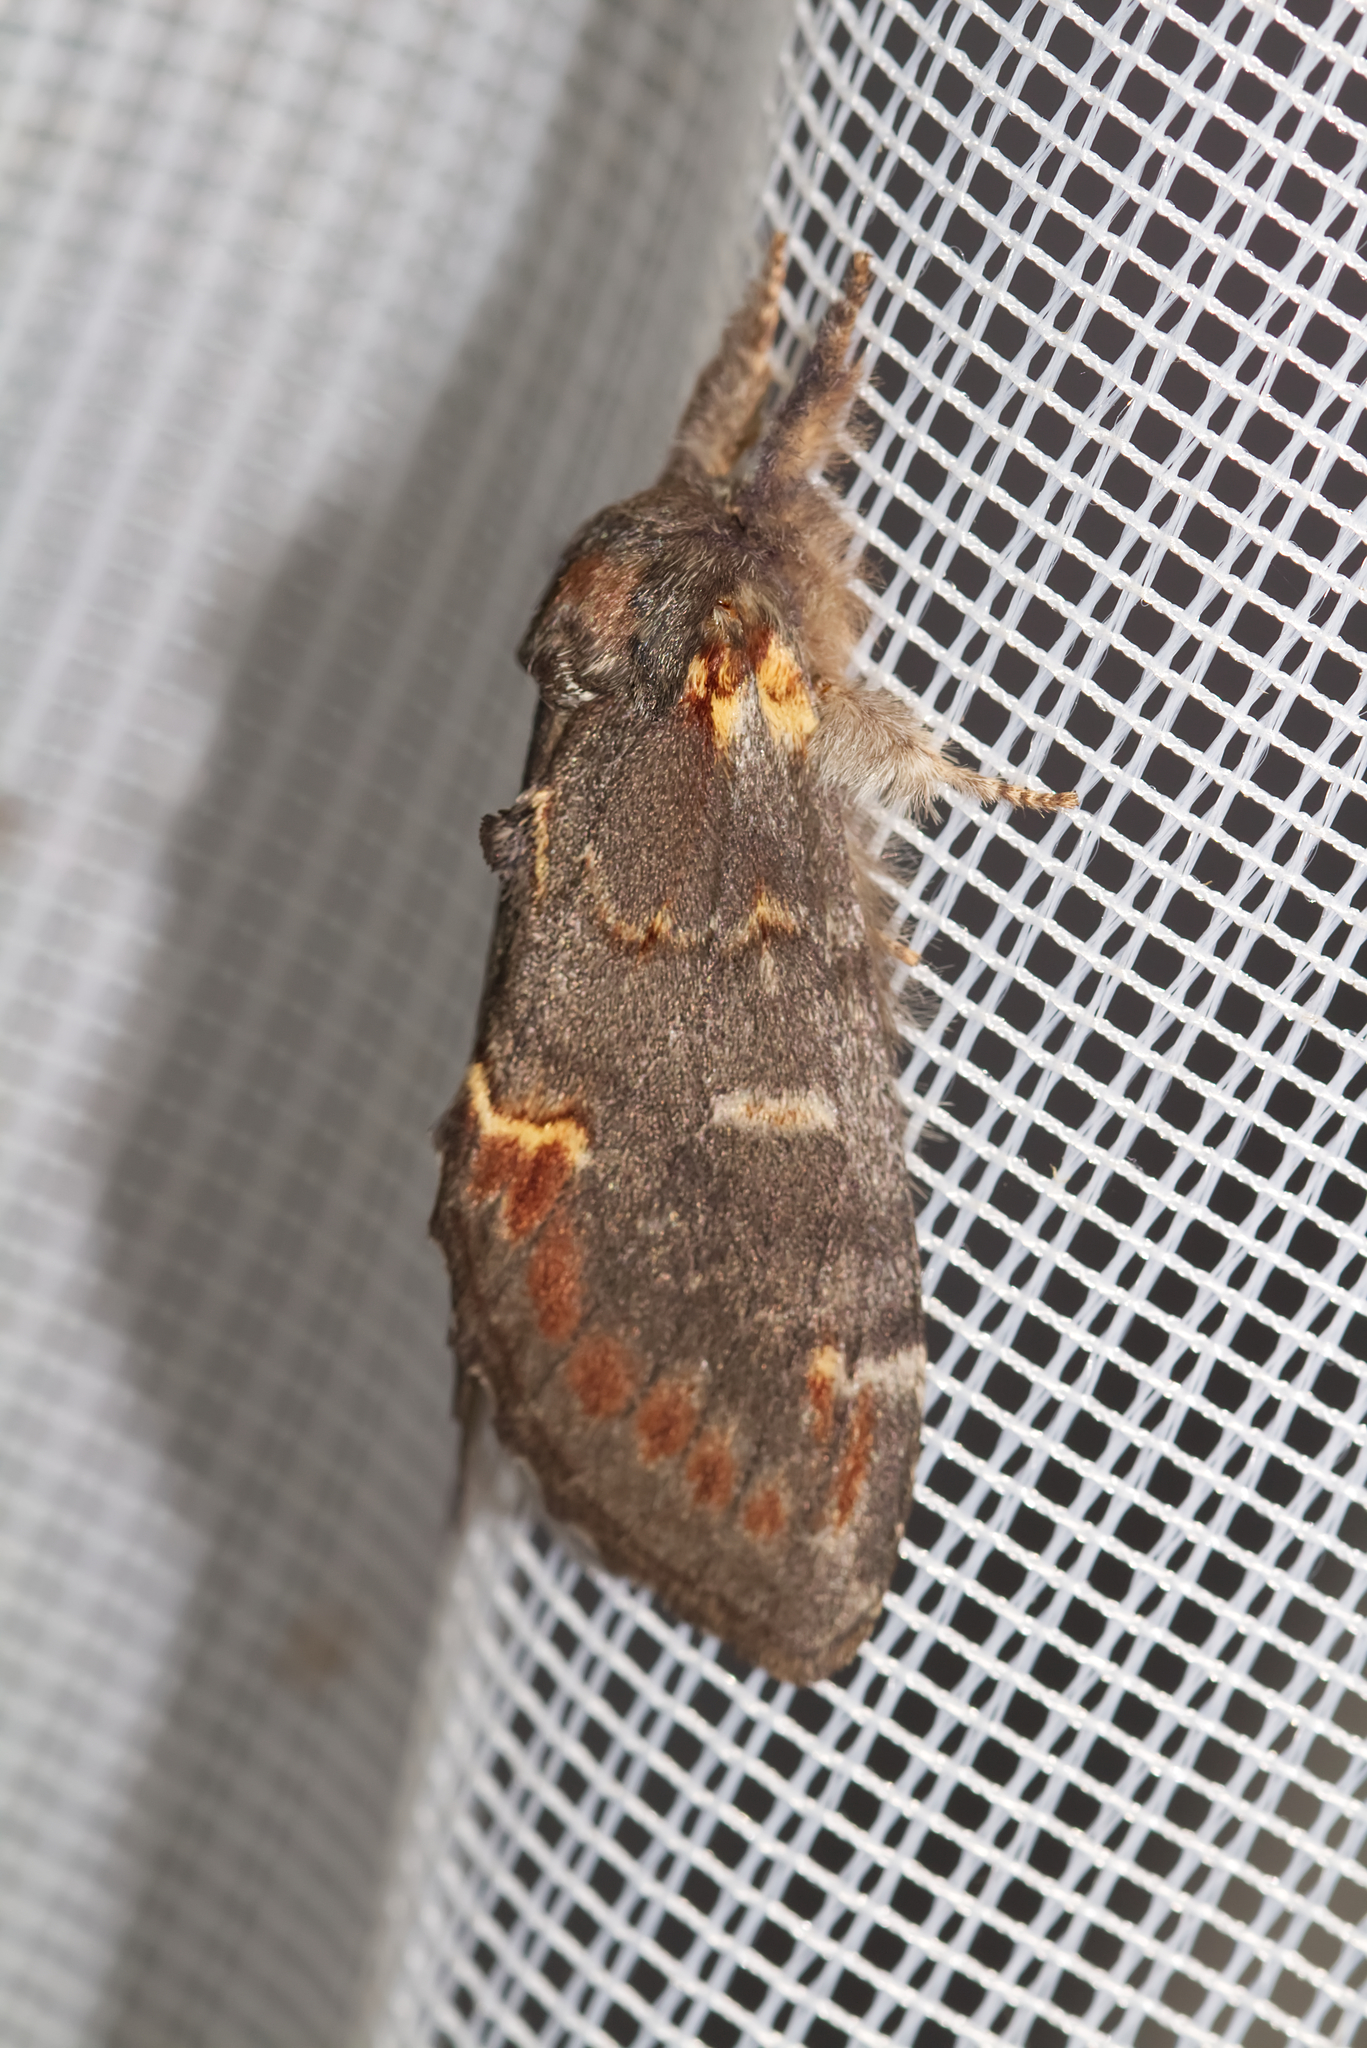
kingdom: Animalia
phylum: Arthropoda
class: Insecta
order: Lepidoptera
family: Notodontidae
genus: Notodonta
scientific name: Notodonta dromedarius
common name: Iron prominent
